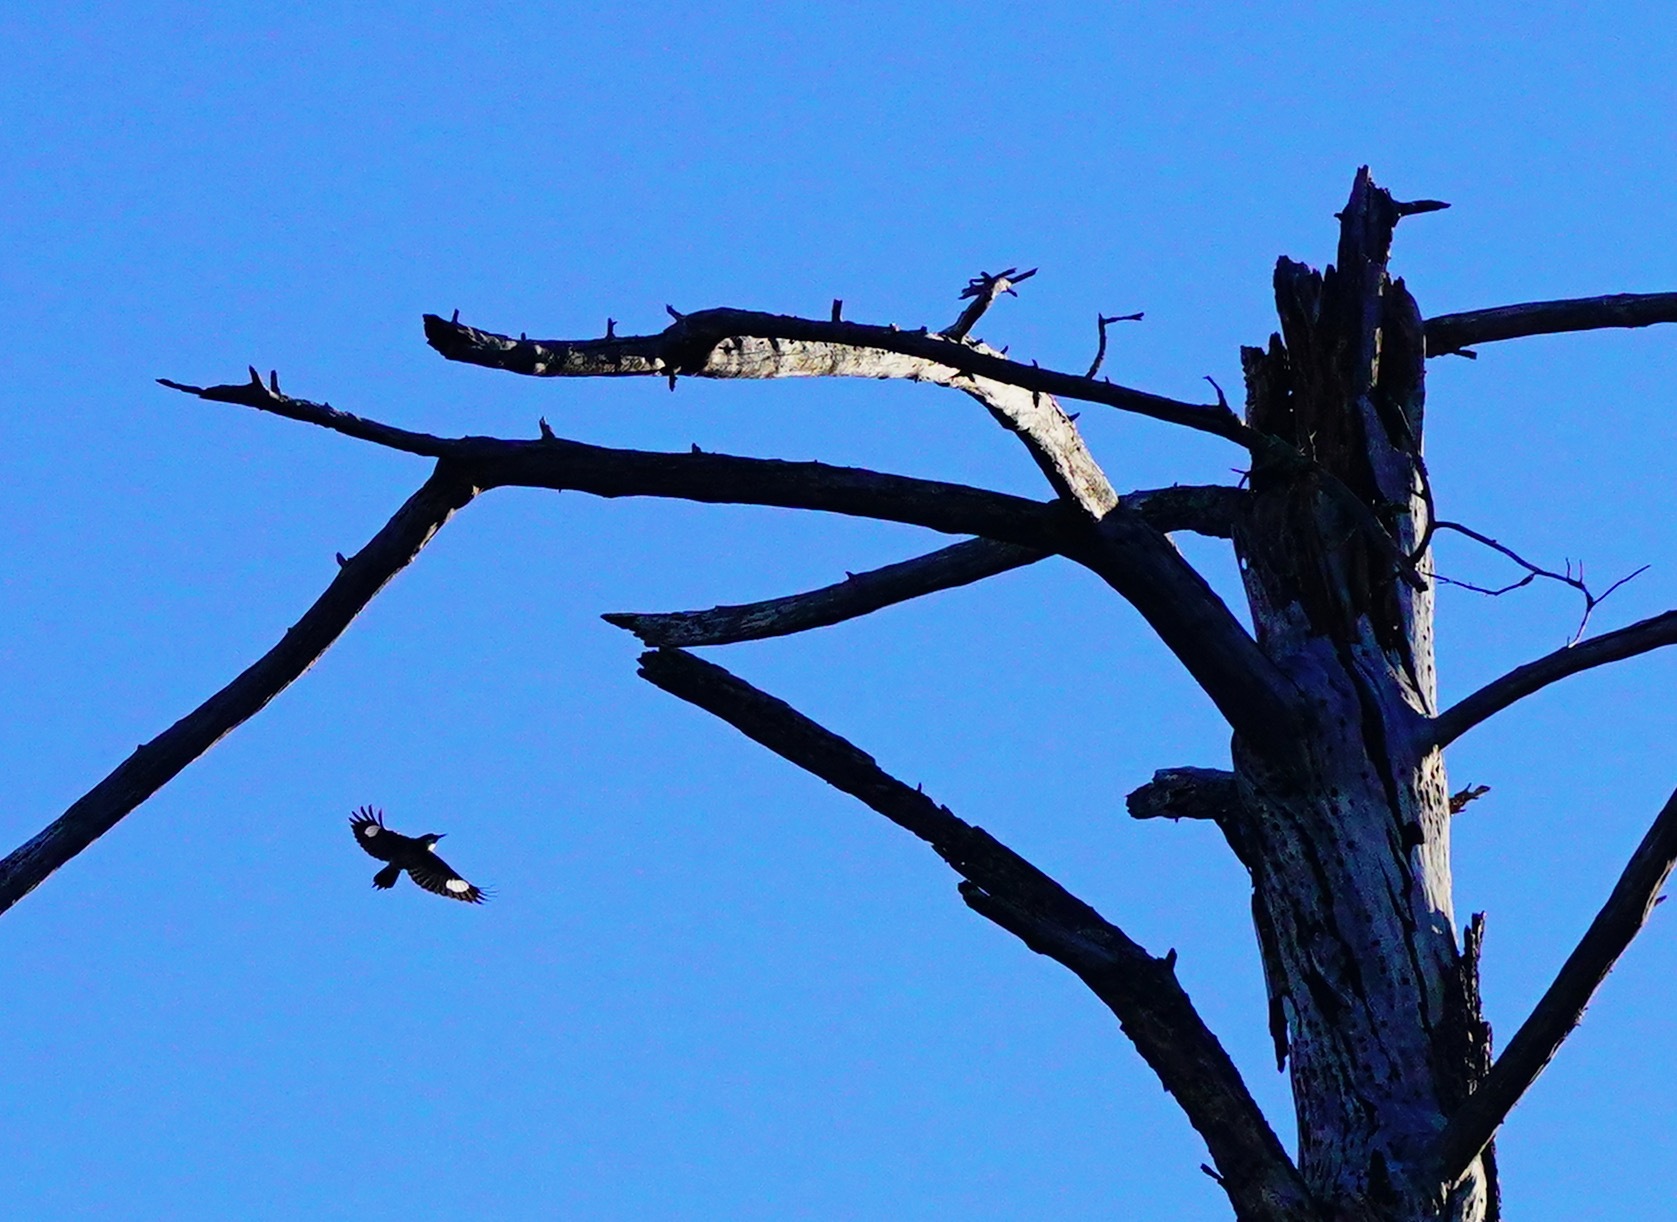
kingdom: Animalia
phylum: Chordata
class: Aves
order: Piciformes
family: Picidae
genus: Melanerpes
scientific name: Melanerpes formicivorus
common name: Acorn woodpecker
